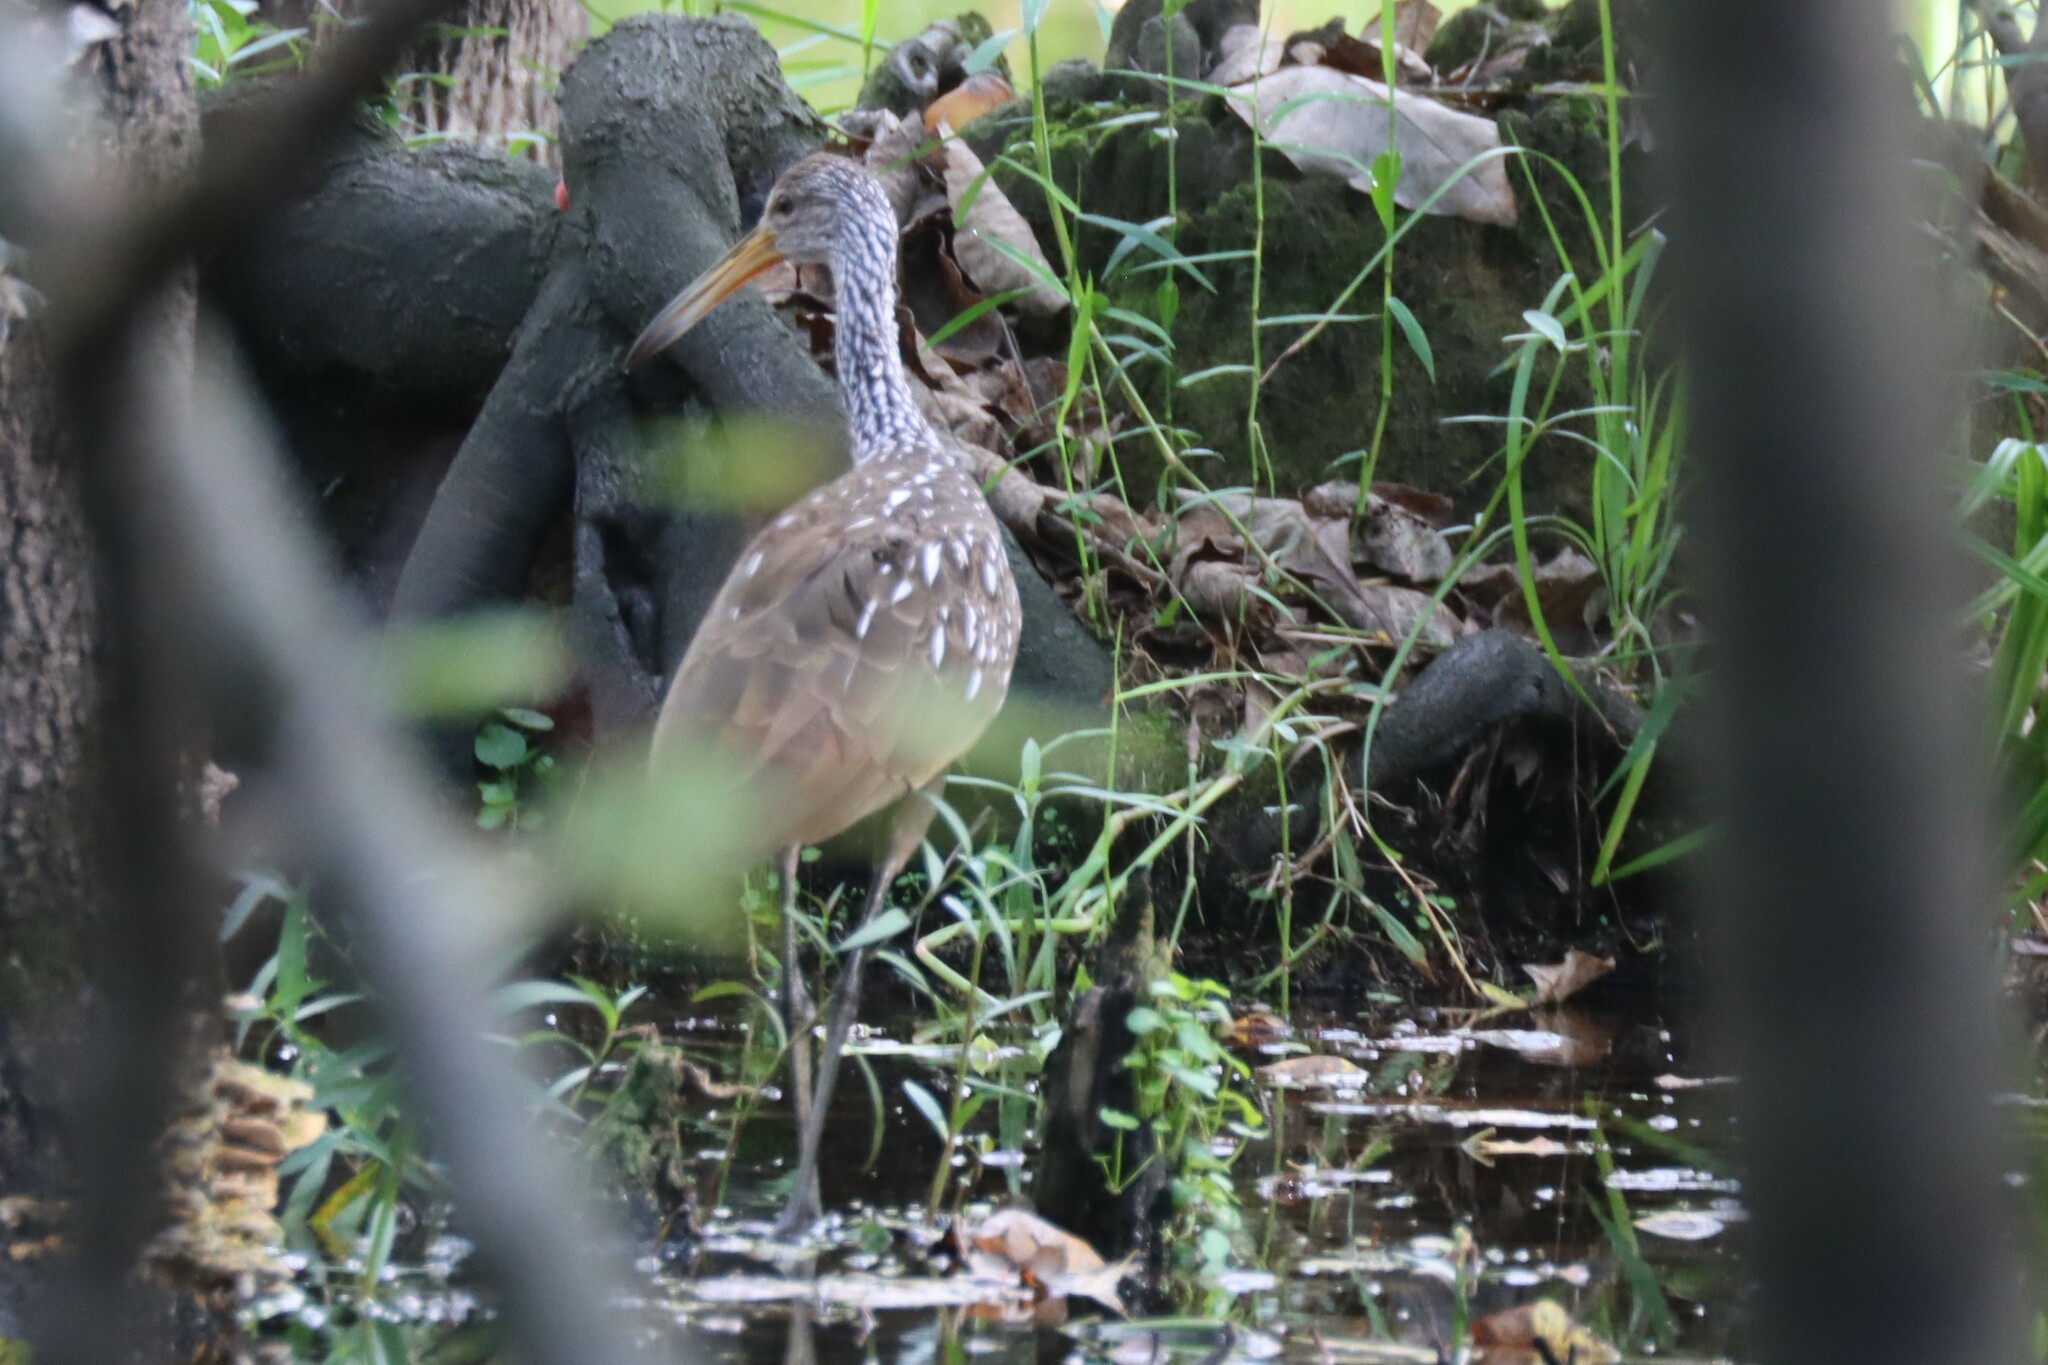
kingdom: Animalia
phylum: Chordata
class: Aves
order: Gruiformes
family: Aramidae
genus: Aramus
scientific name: Aramus guarauna
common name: Limpkin
